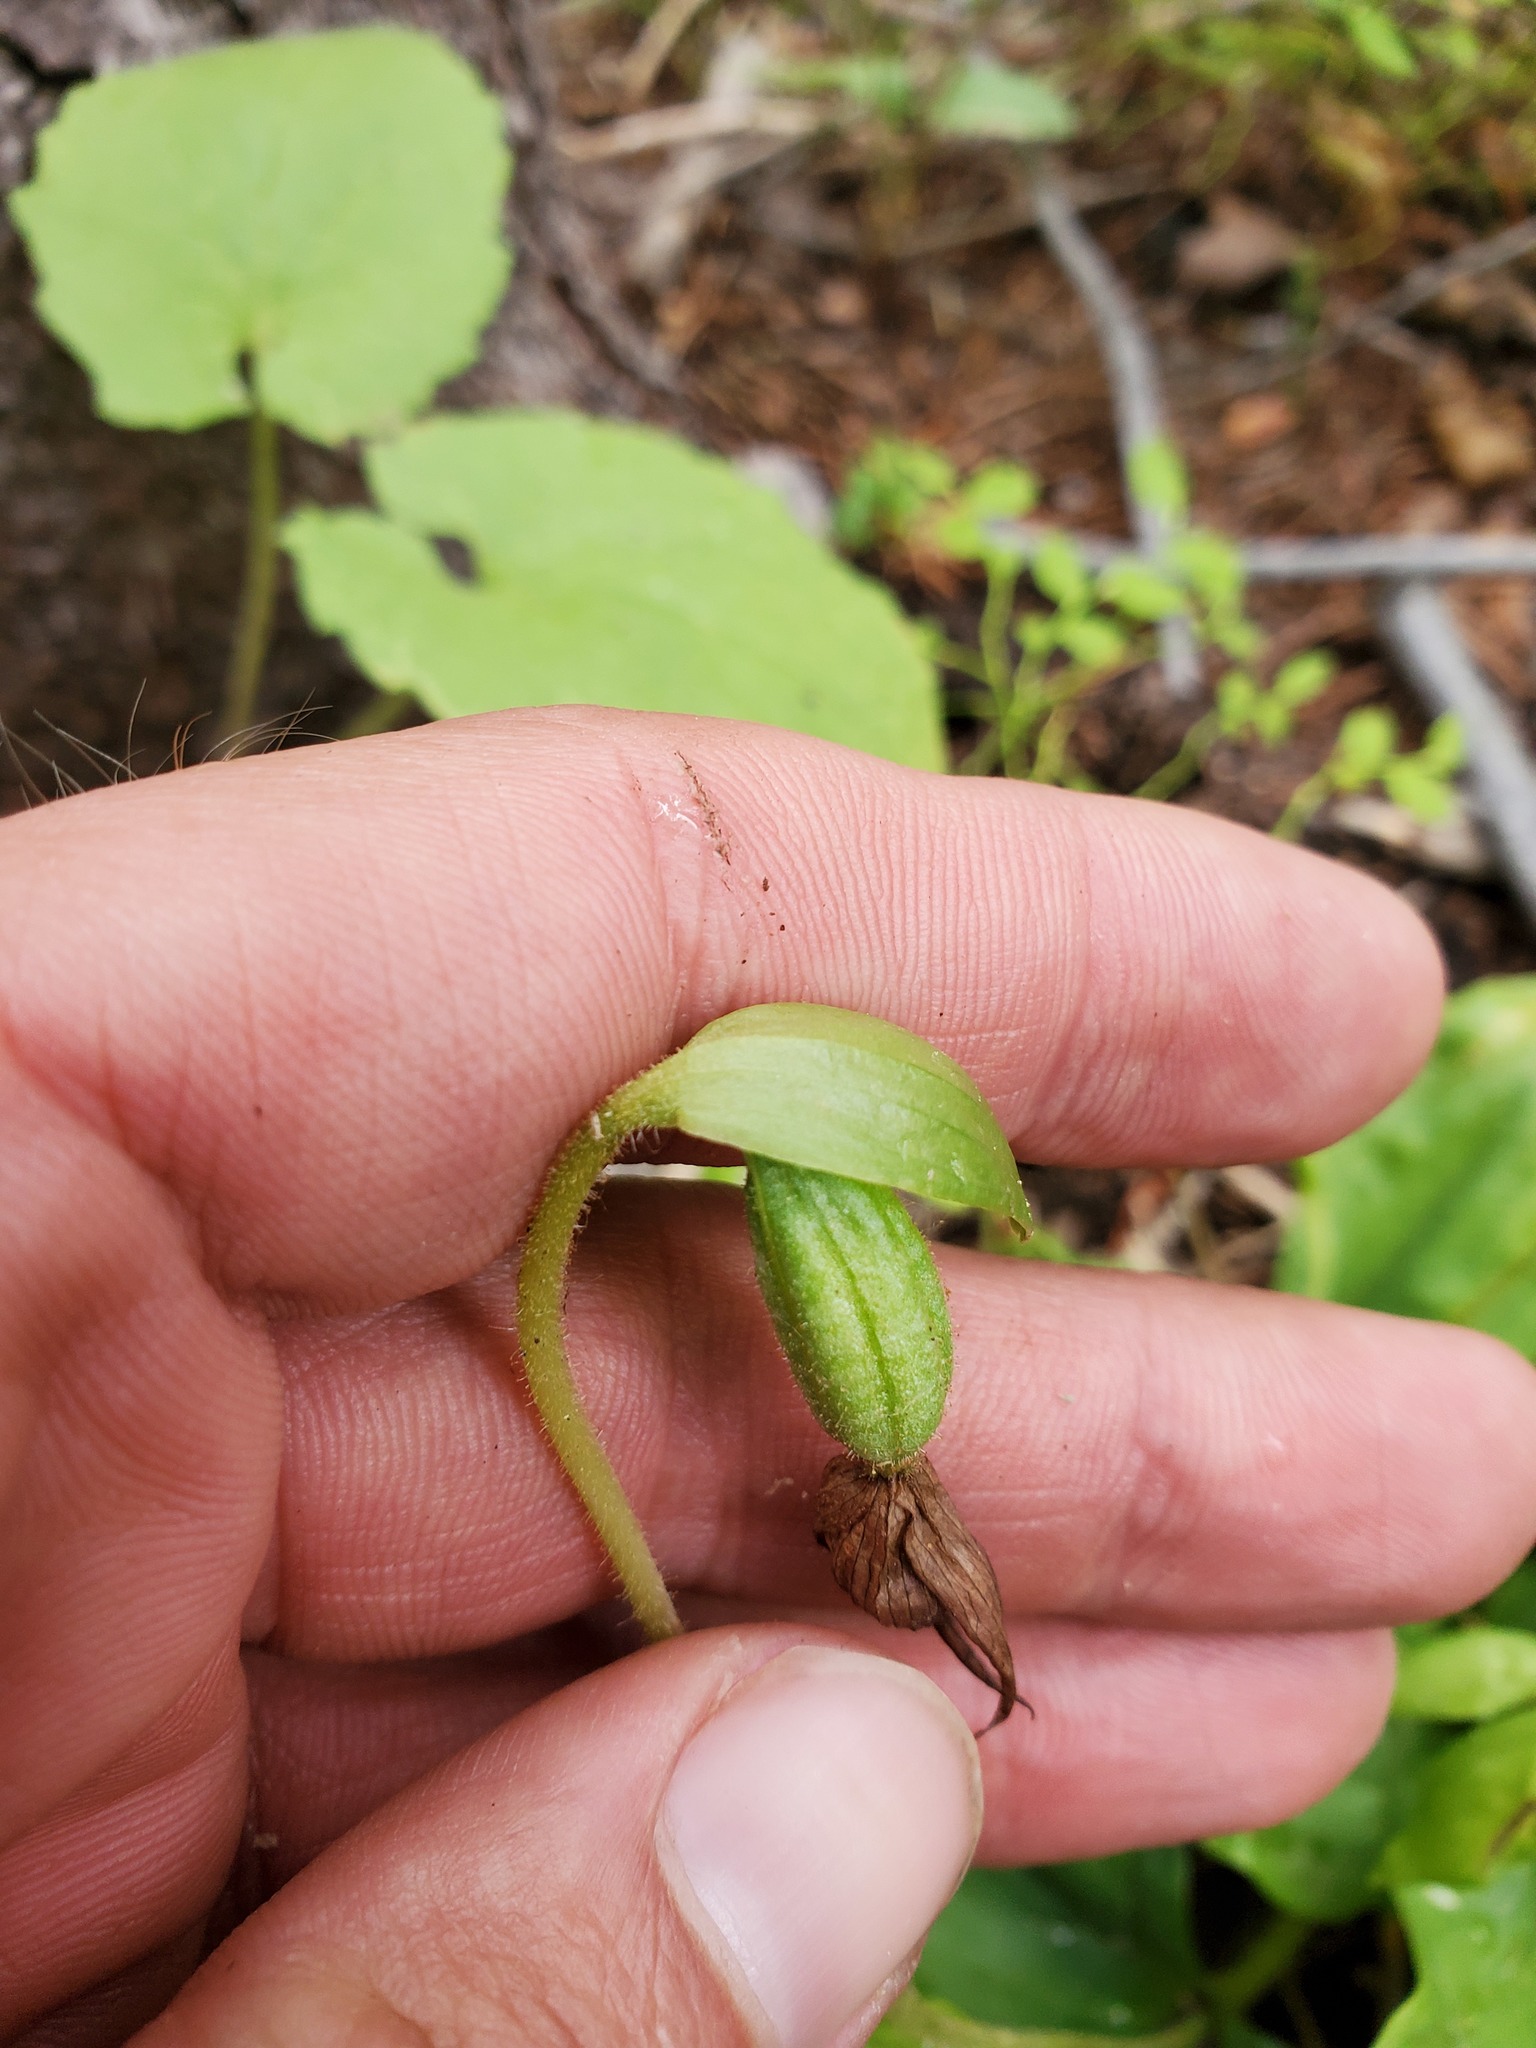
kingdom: Plantae
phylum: Tracheophyta
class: Liliopsida
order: Asparagales
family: Orchidaceae
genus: Cypripedium
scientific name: Cypripedium fasciculatum
